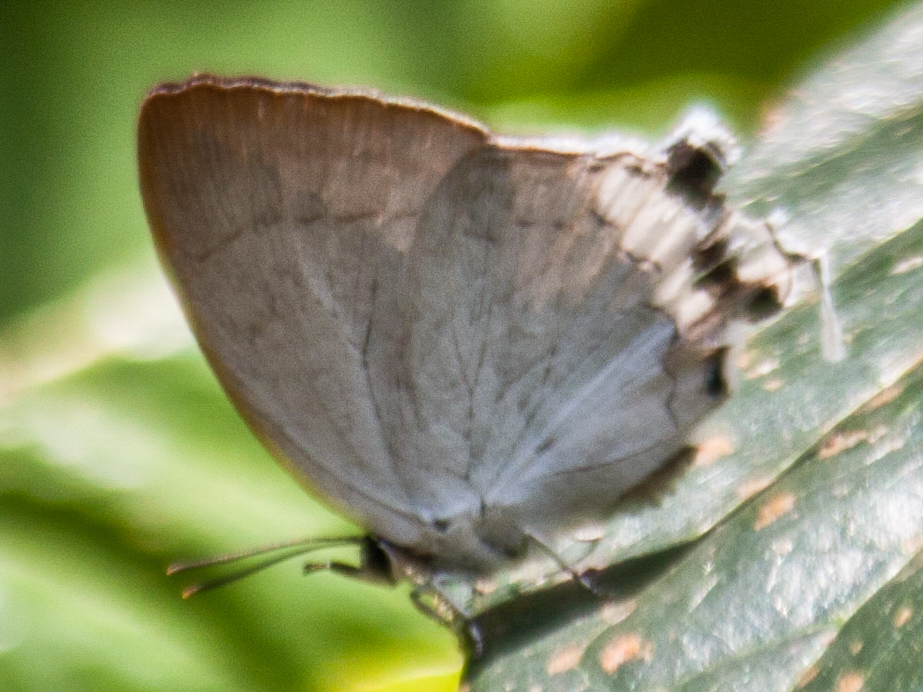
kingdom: Animalia
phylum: Arthropoda
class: Insecta
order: Lepidoptera
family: Lycaenidae
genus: Cheritra
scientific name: Cheritra freja
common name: Common imperial
